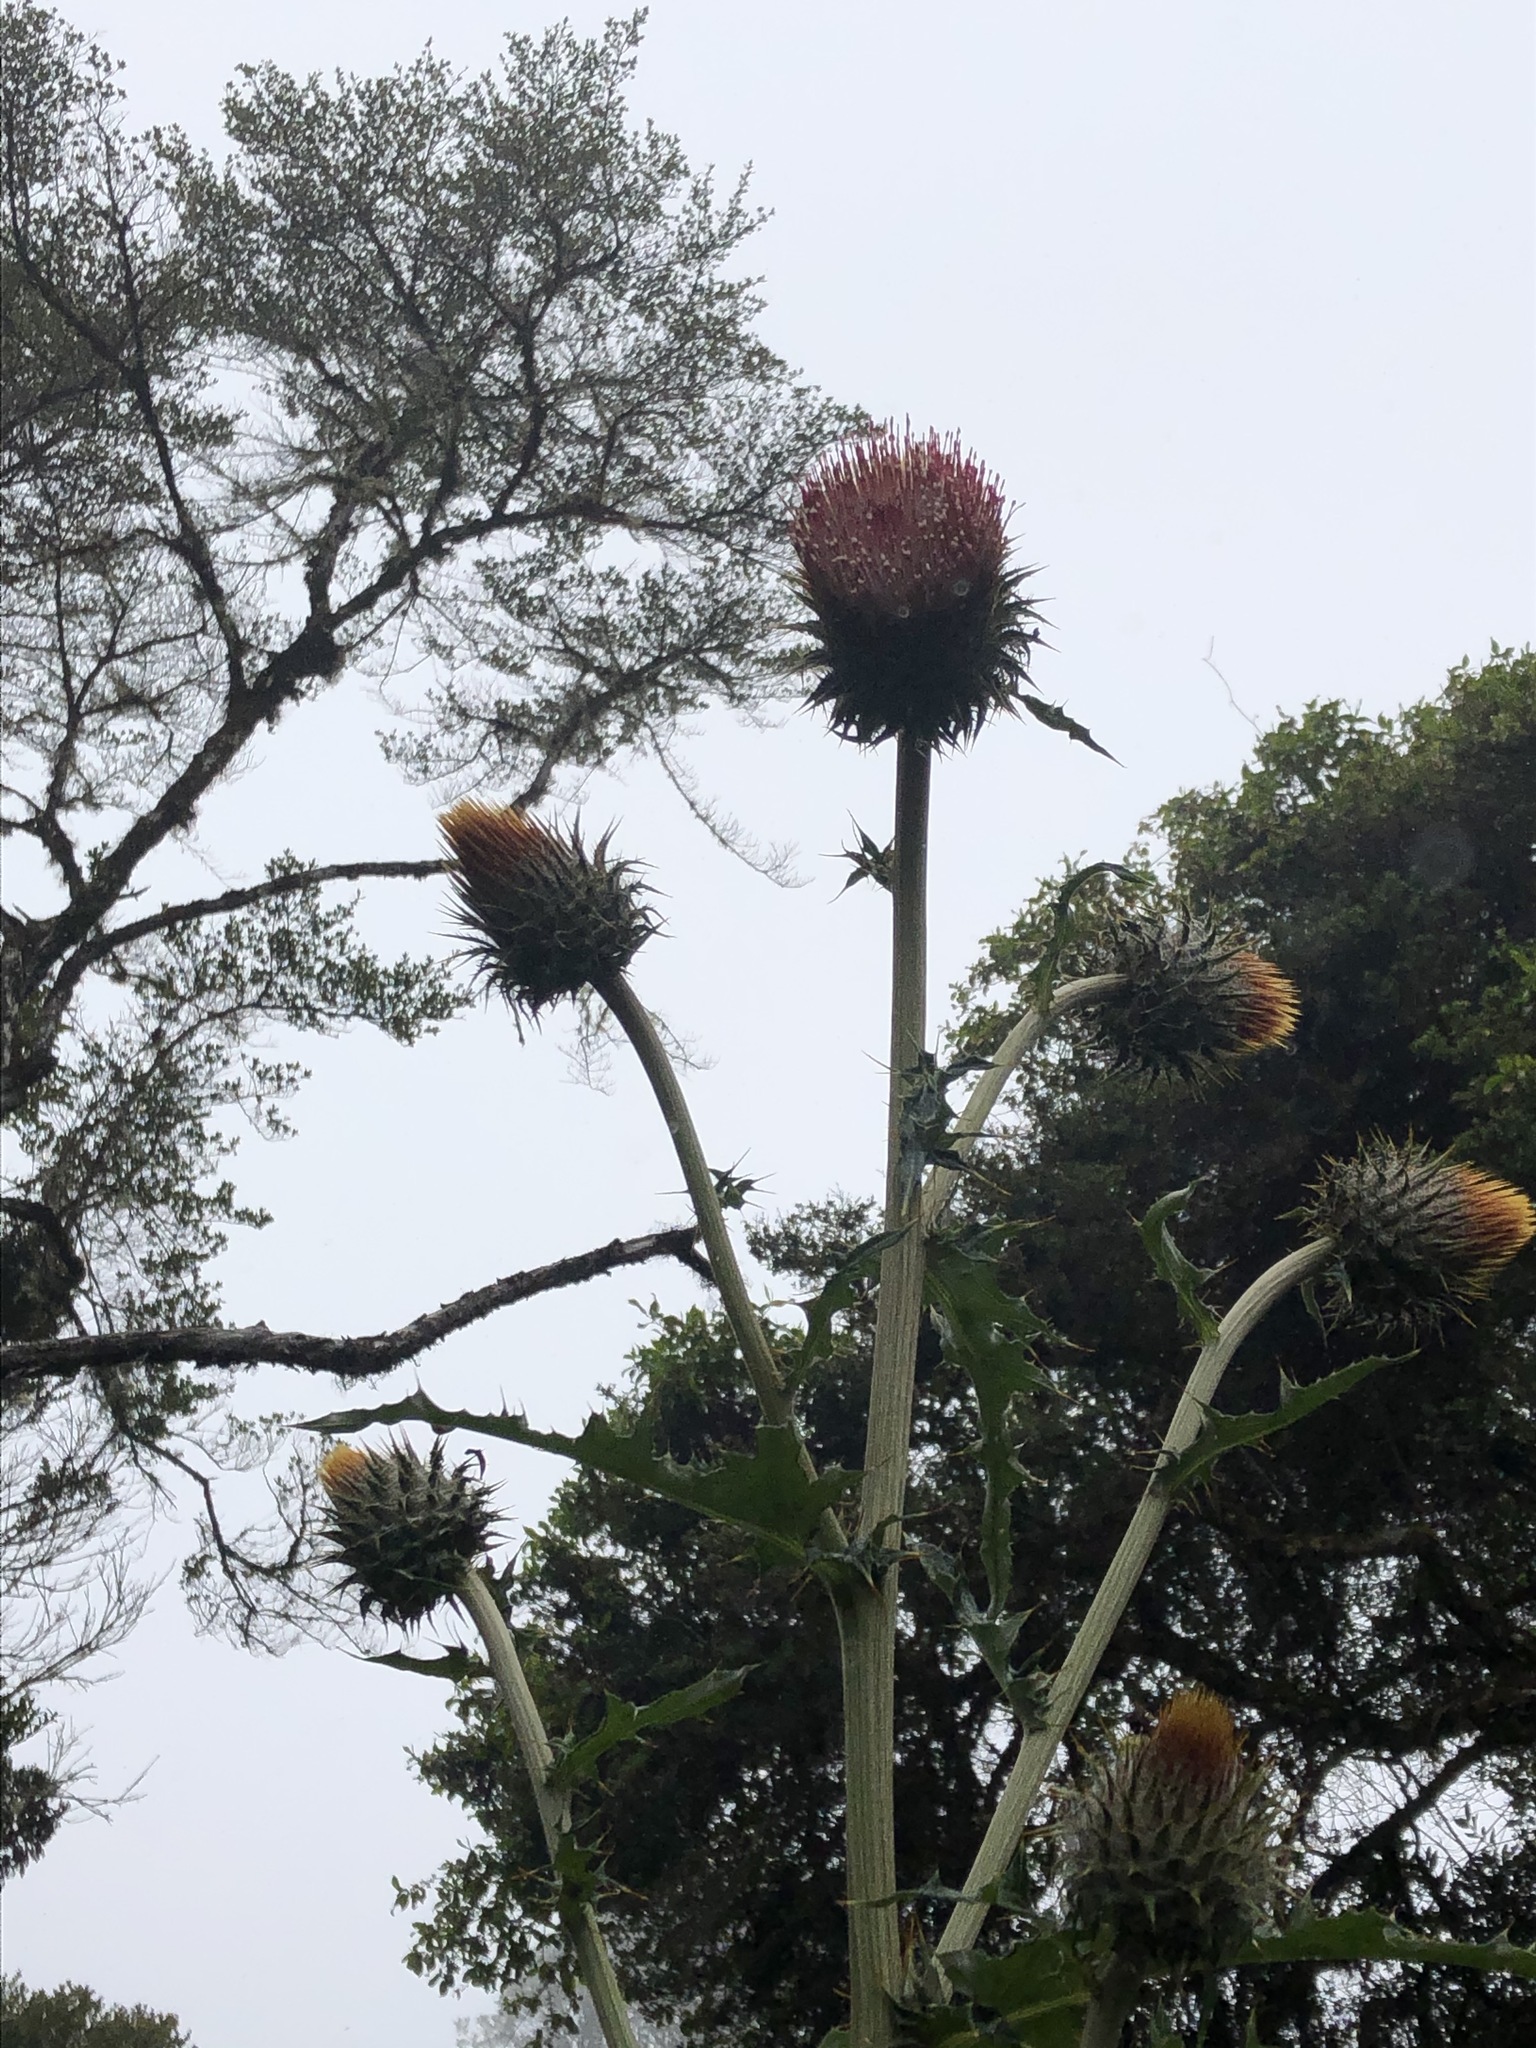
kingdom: Plantae
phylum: Tracheophyta
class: Magnoliopsida
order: Asterales
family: Asteraceae
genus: Cirsium
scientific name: Cirsium subcoriaceum
